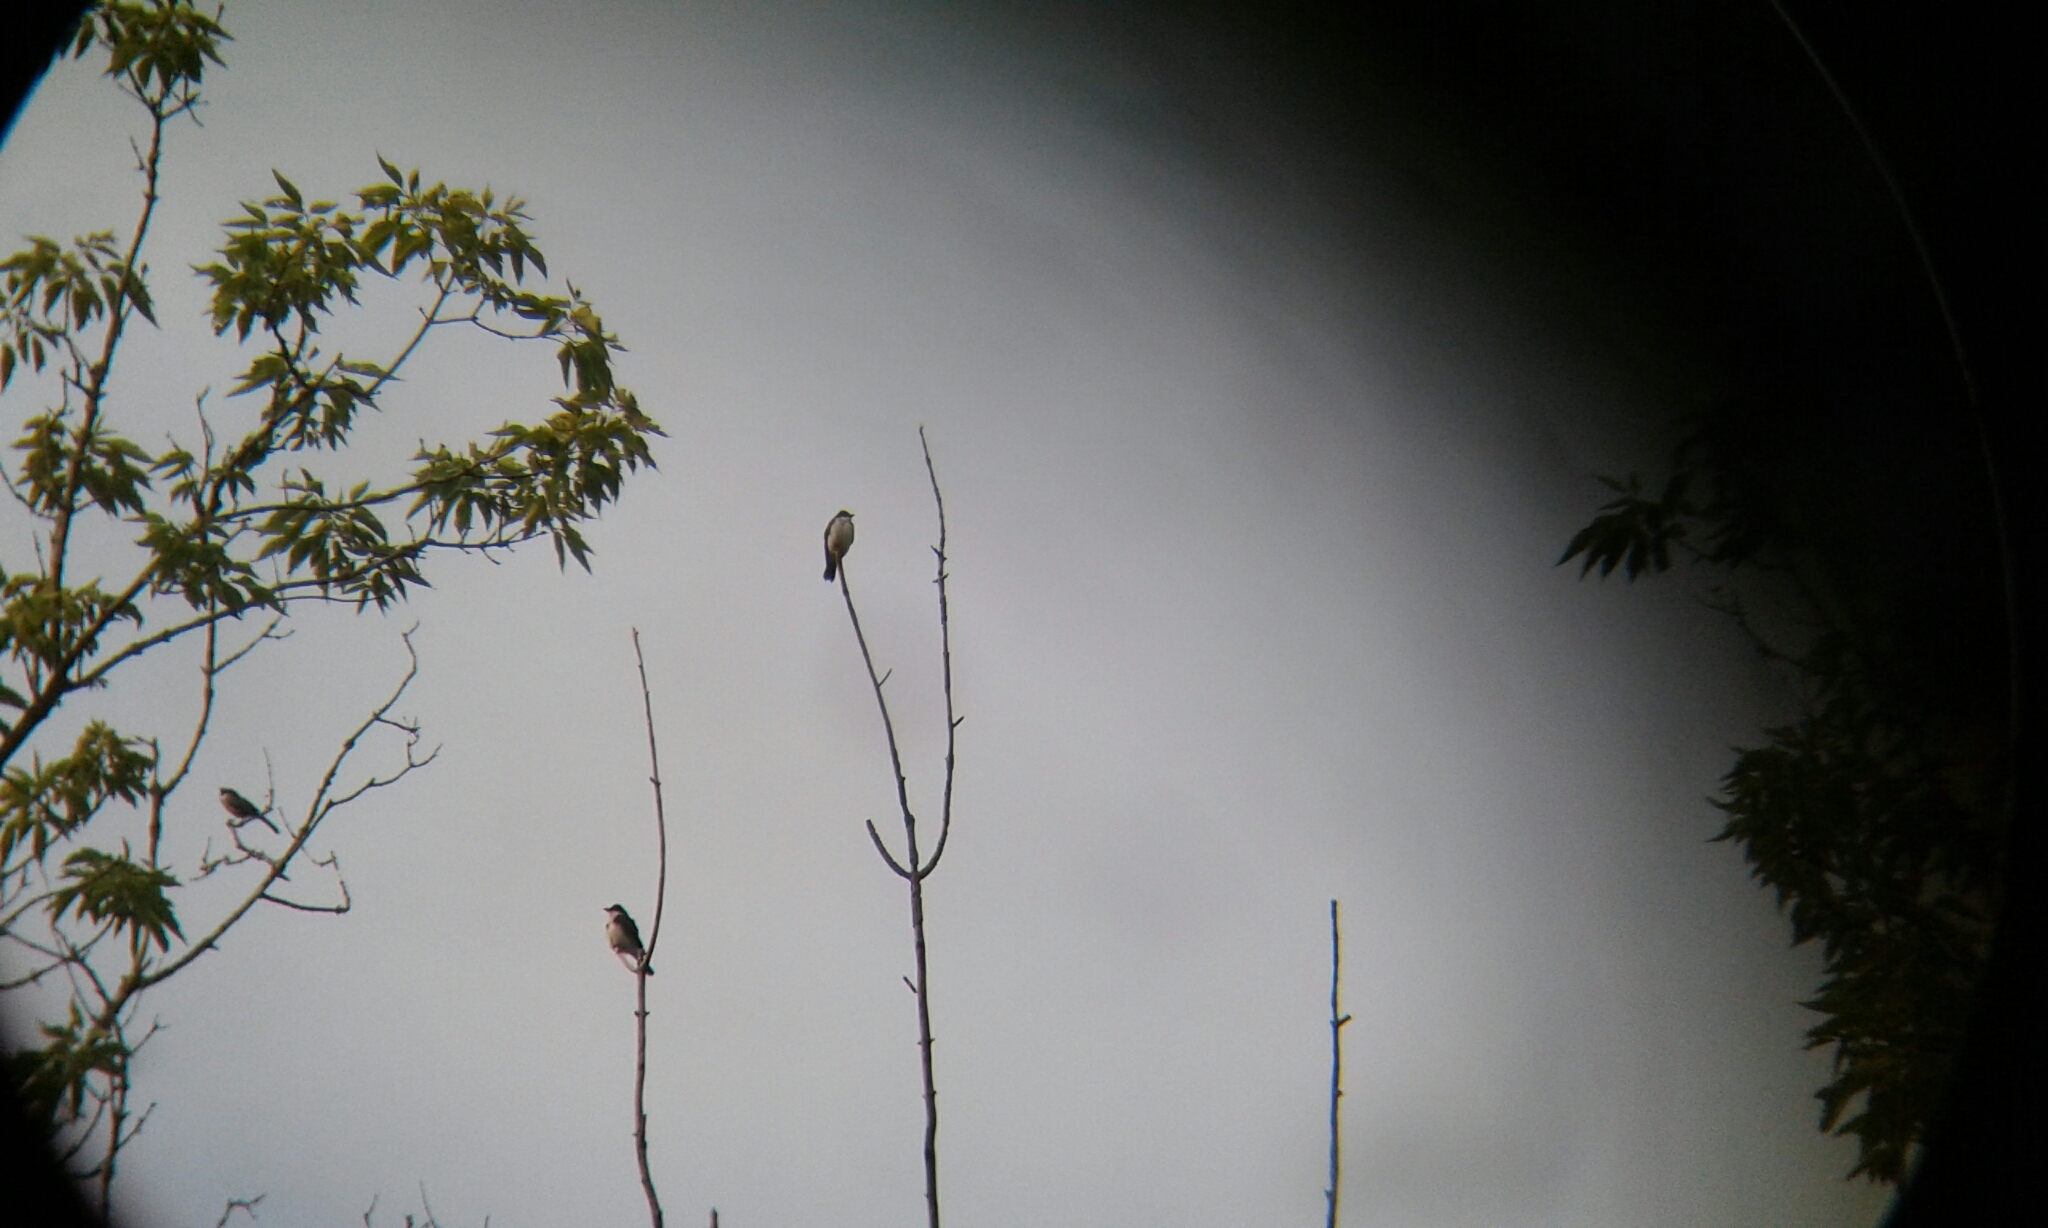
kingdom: Animalia
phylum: Chordata
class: Aves
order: Passeriformes
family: Tyrannidae
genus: Tyrannus
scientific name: Tyrannus tyrannus
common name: Eastern kingbird
